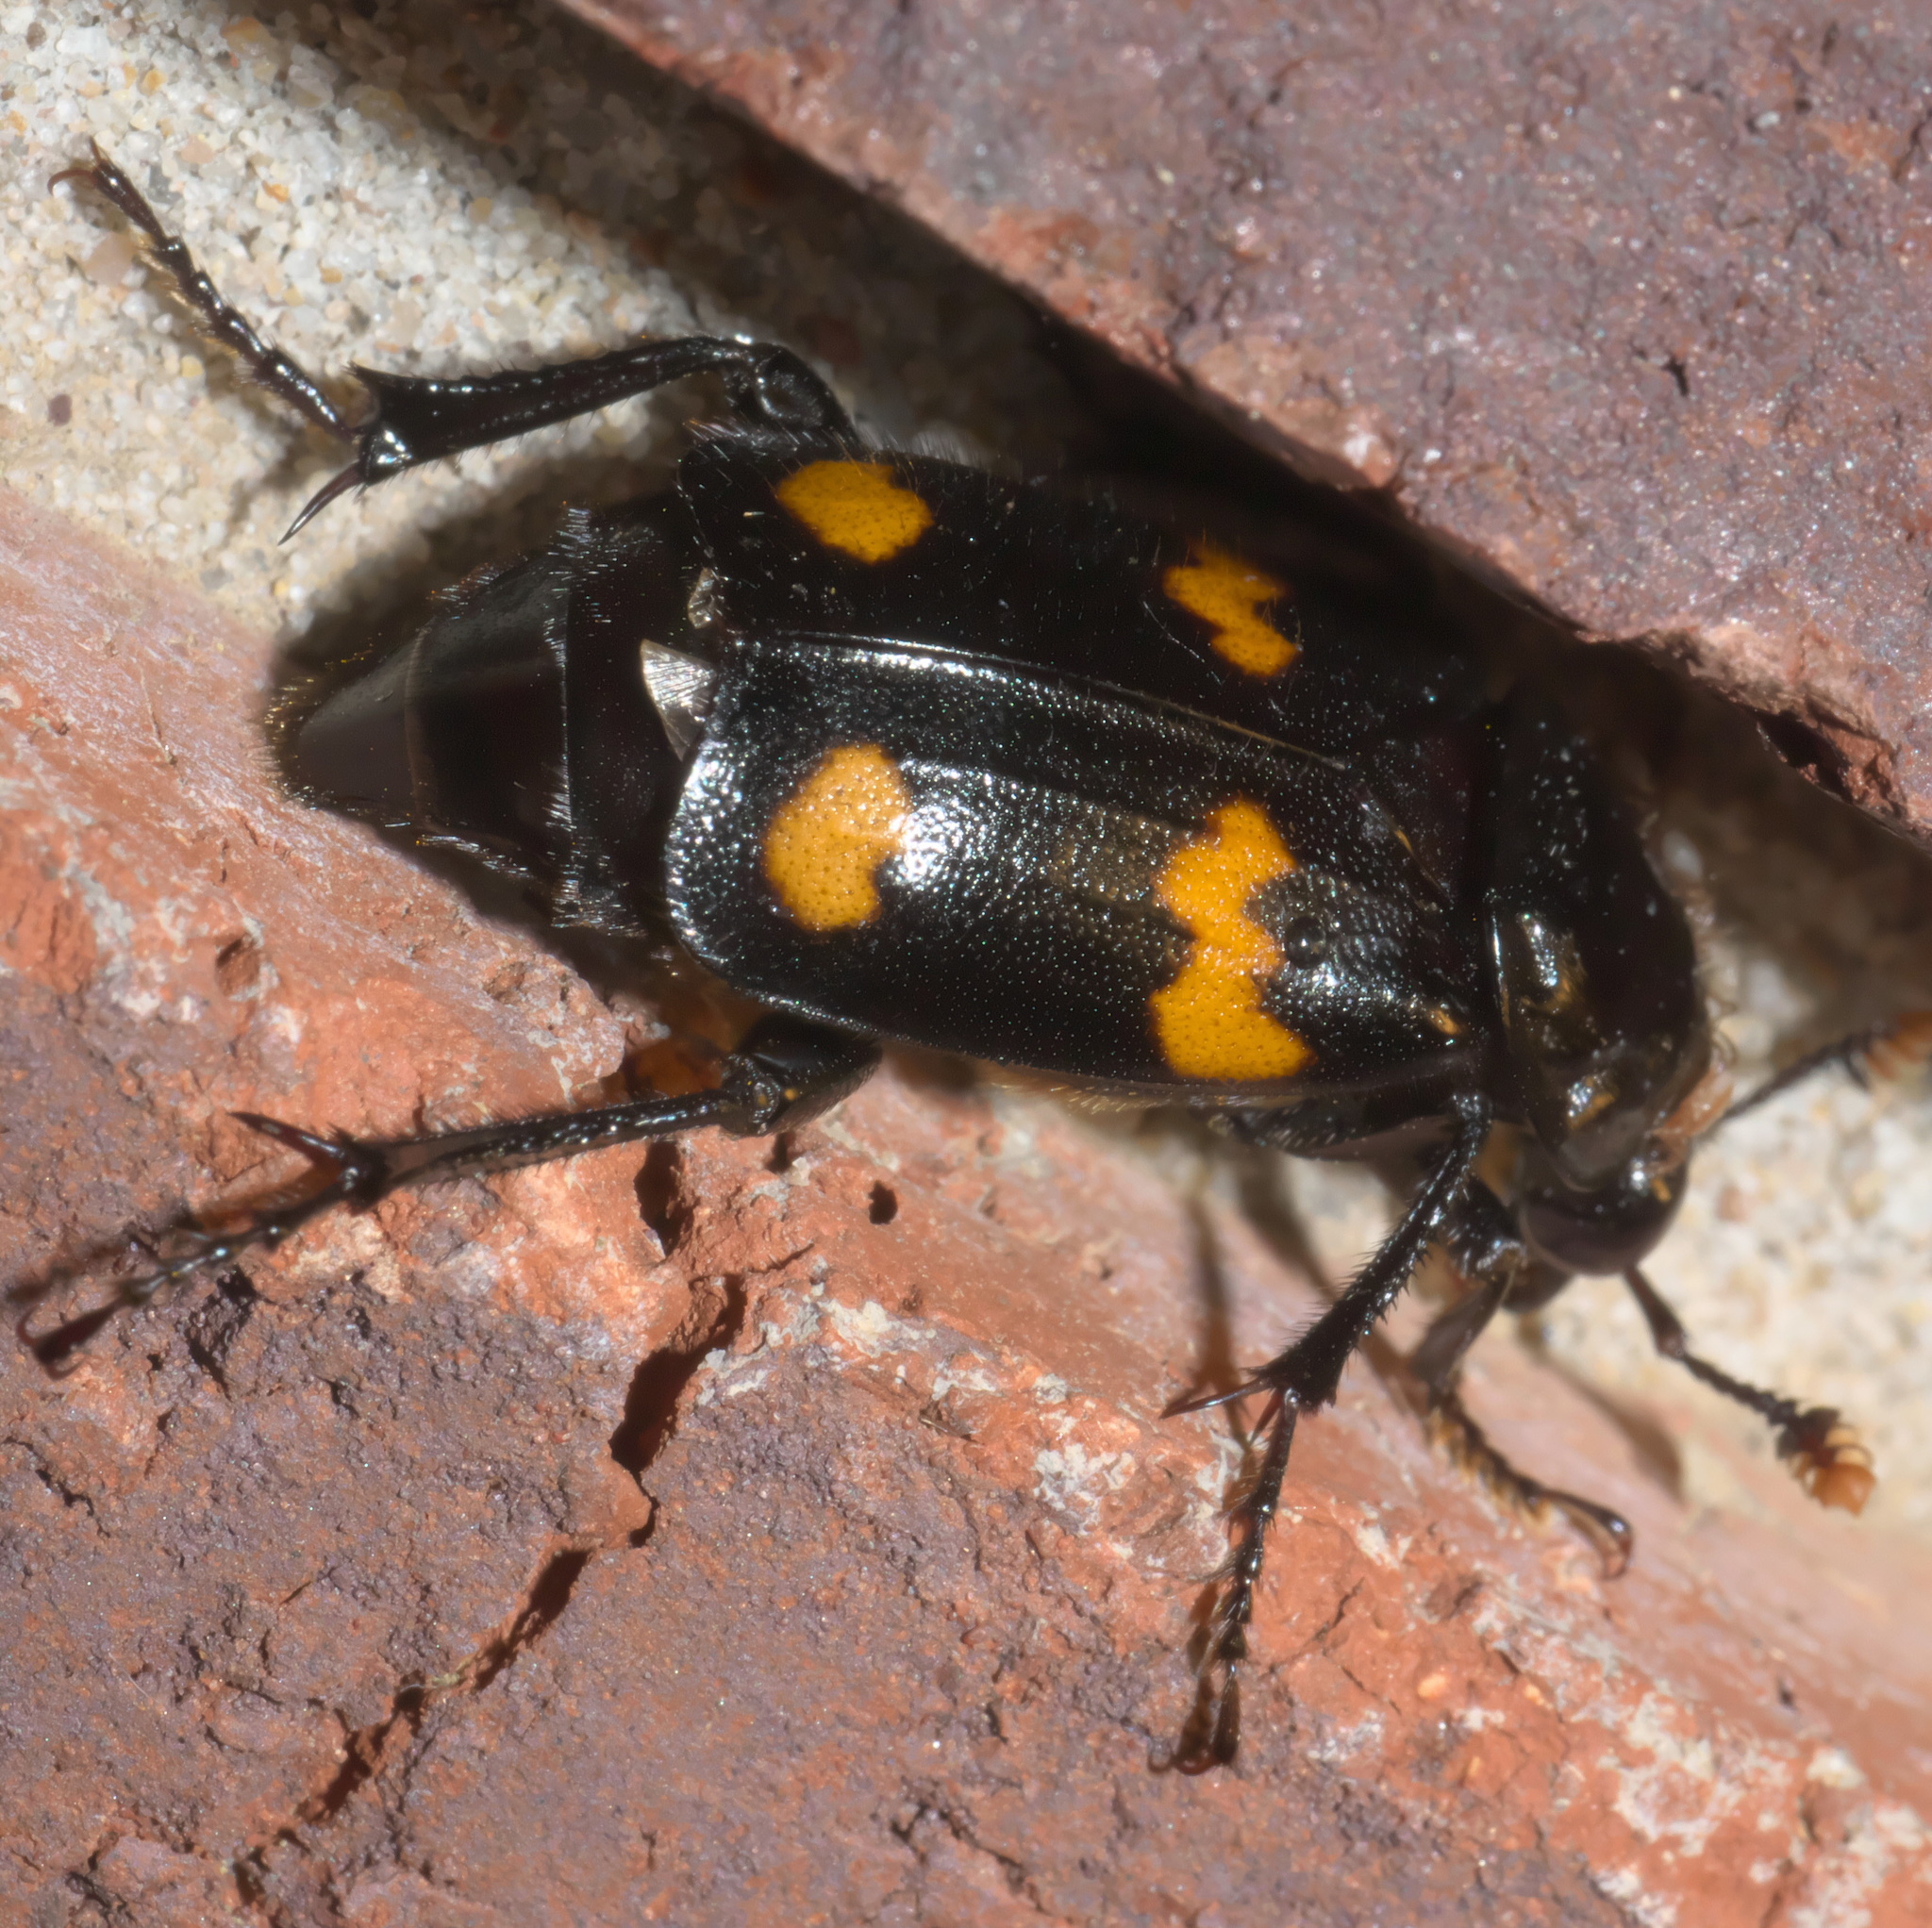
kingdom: Animalia
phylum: Arthropoda
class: Insecta
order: Coleoptera
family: Staphylinidae
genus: Nicrophorus
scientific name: Nicrophorus orbicollis
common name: Roundneck sexton beetle
